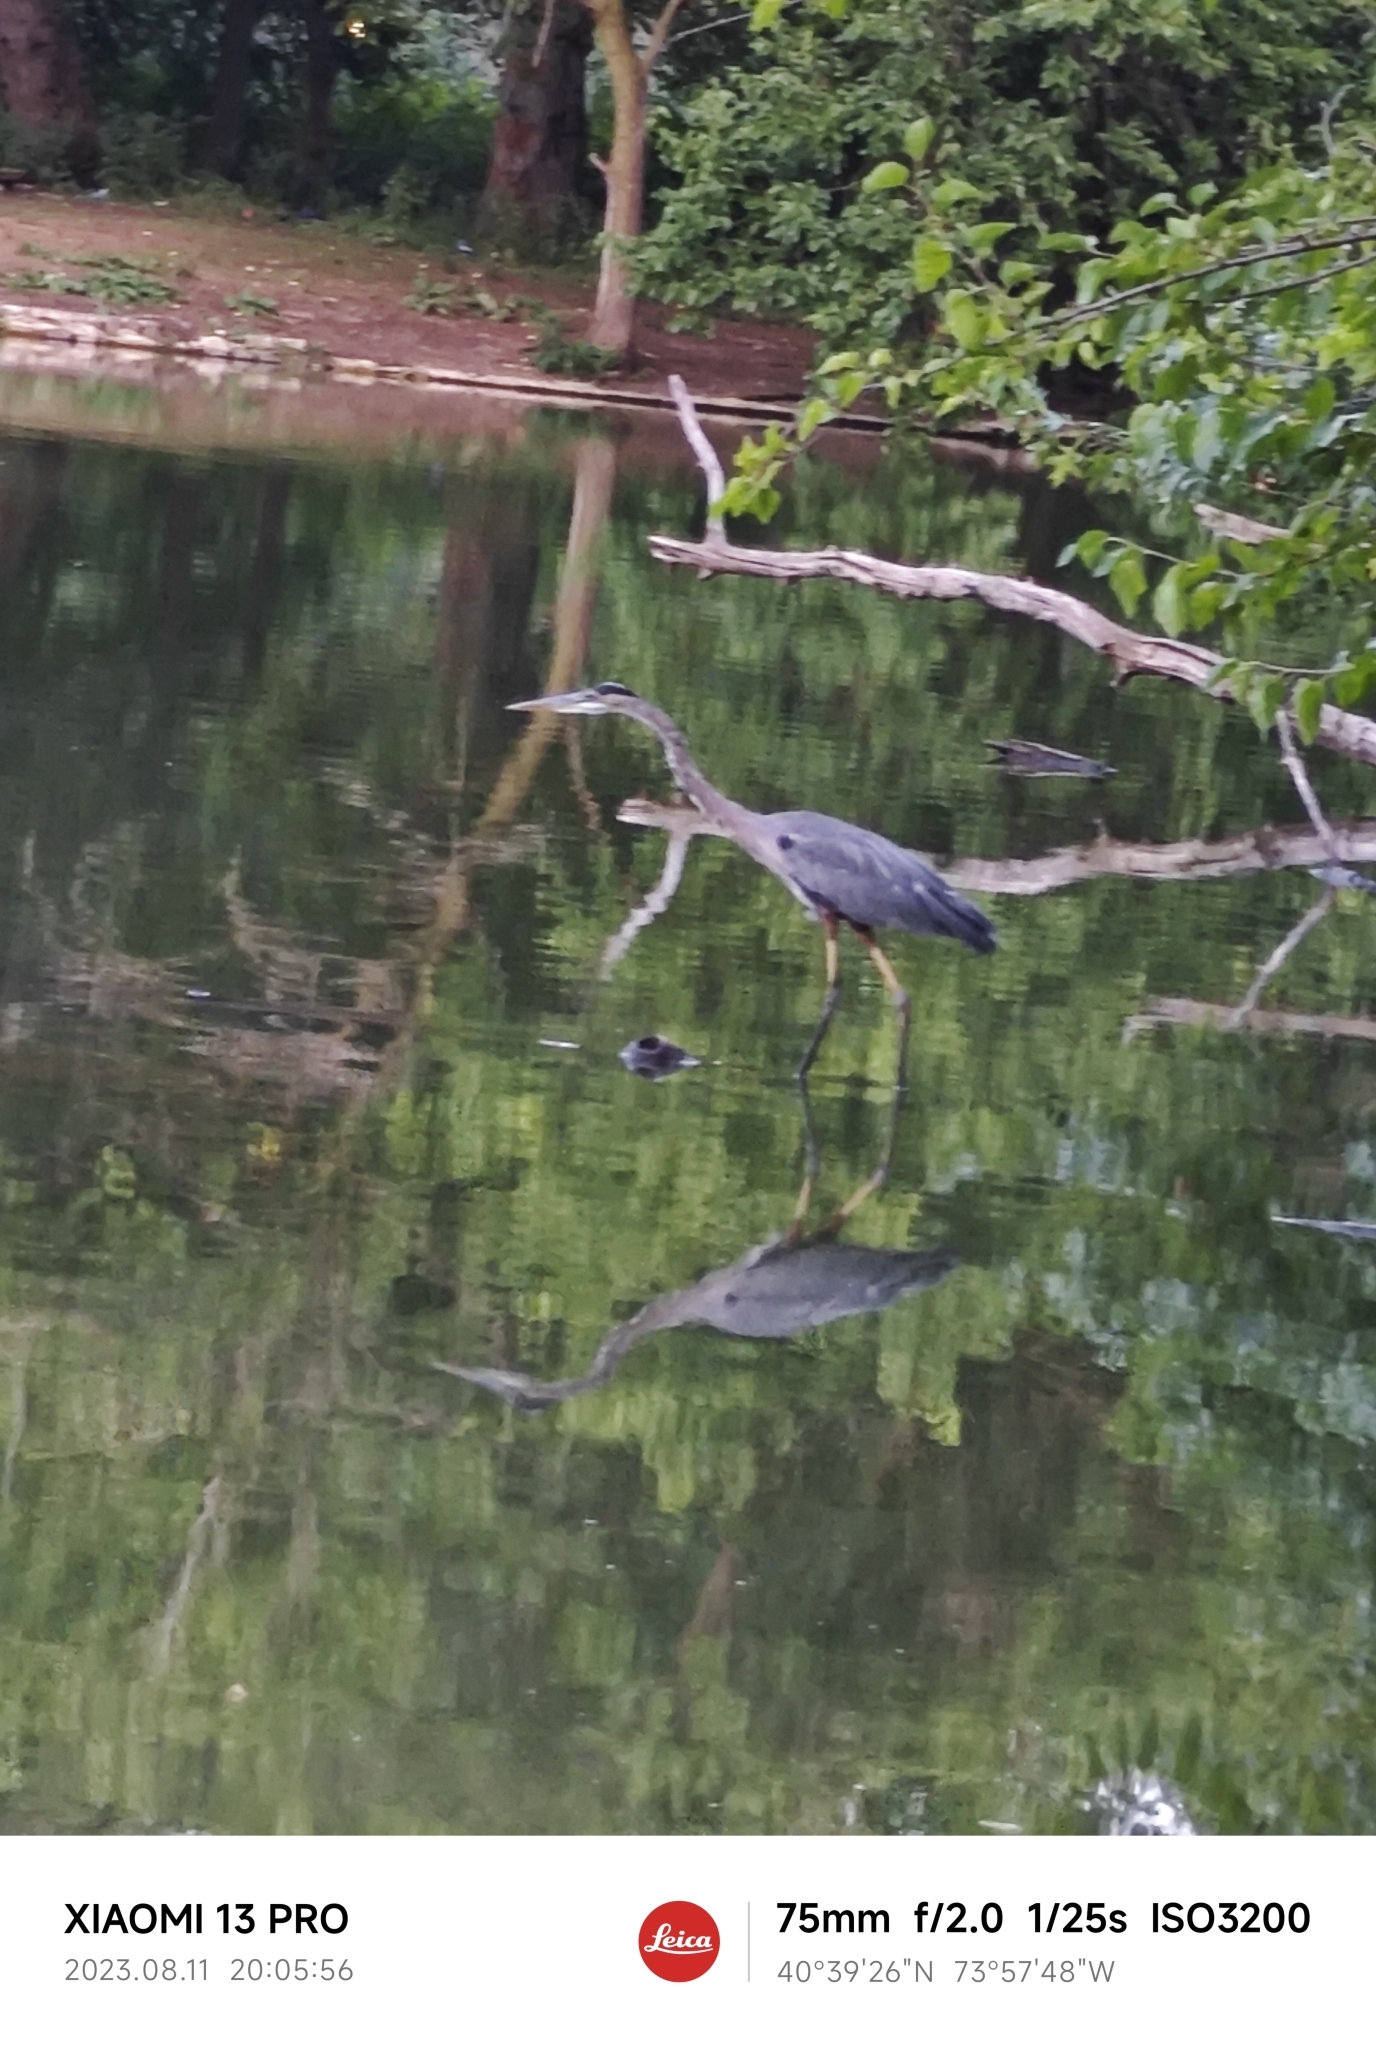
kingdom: Animalia
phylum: Chordata
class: Aves
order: Pelecaniformes
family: Ardeidae
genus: Ardea
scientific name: Ardea herodias
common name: Great blue heron
